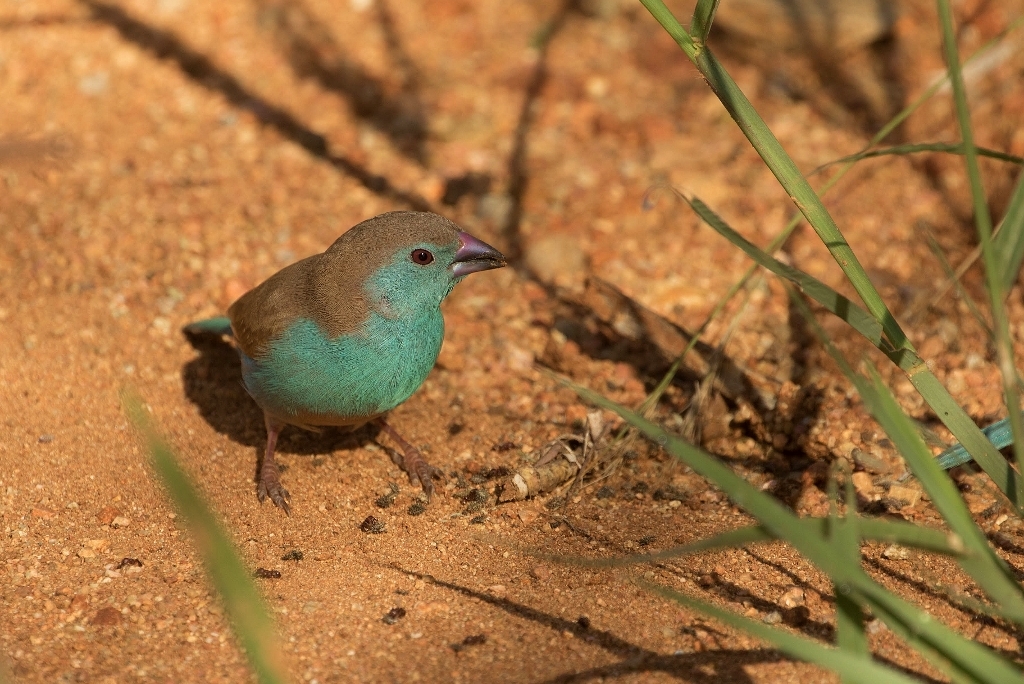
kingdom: Animalia
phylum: Chordata
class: Aves
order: Passeriformes
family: Estrildidae
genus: Uraeginthus
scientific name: Uraeginthus angolensis
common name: Blue waxbill
